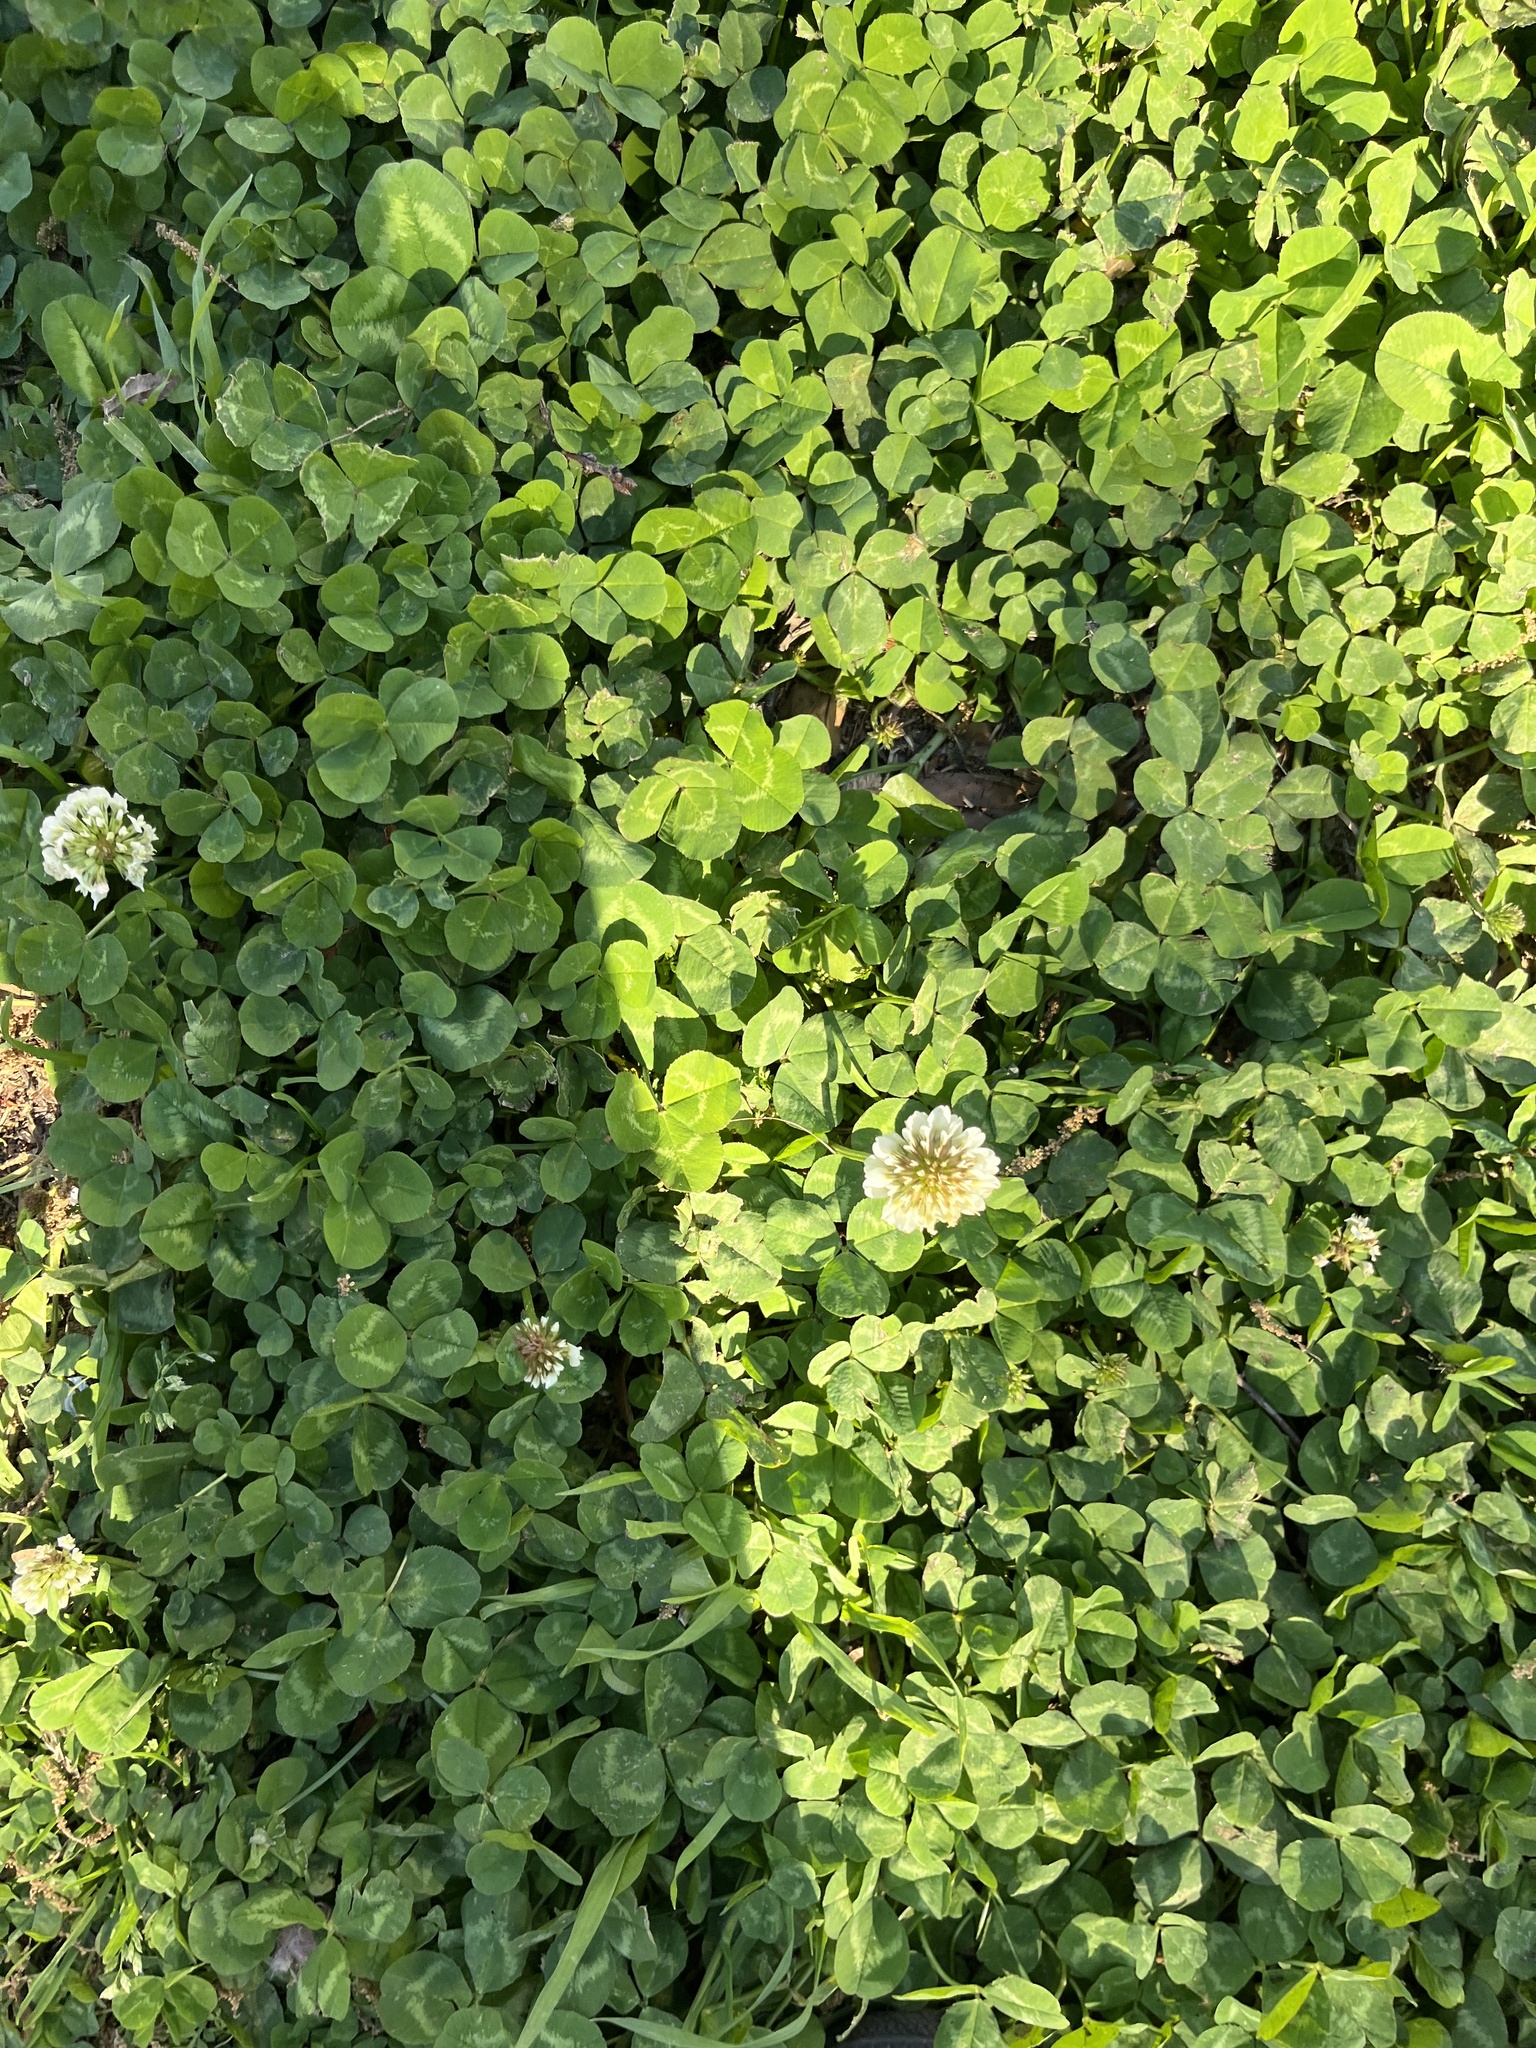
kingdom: Plantae
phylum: Tracheophyta
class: Magnoliopsida
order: Fabales
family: Fabaceae
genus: Trifolium
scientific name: Trifolium repens
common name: White clover
